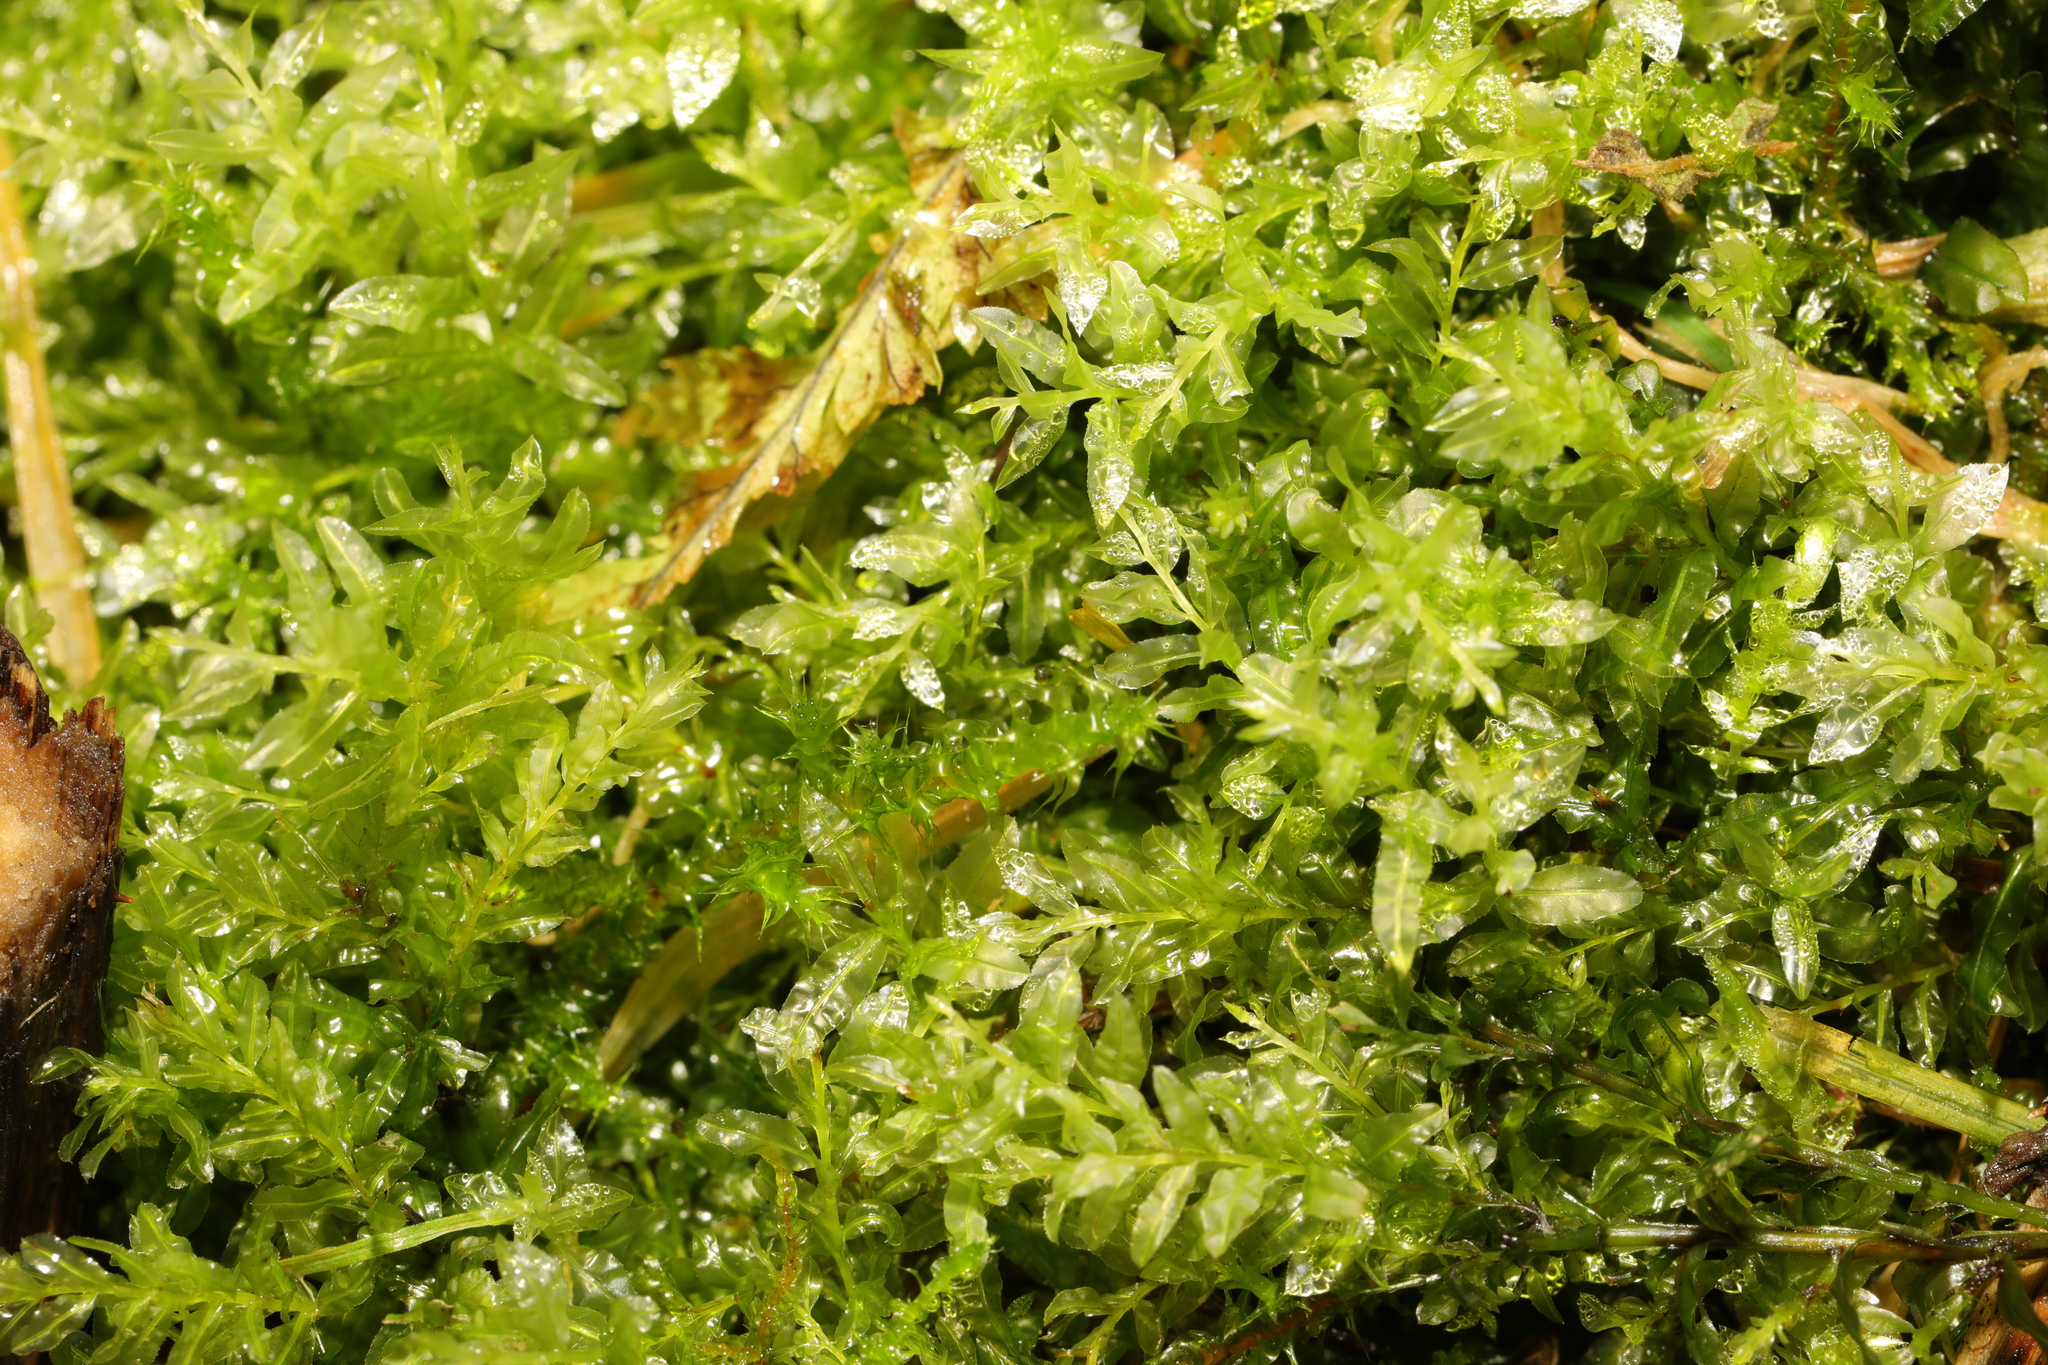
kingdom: Plantae
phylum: Bryophyta
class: Bryopsida
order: Bryales
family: Mniaceae
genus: Plagiomnium
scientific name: Plagiomnium undulatum
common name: Hart's-tongue thyme-moss
